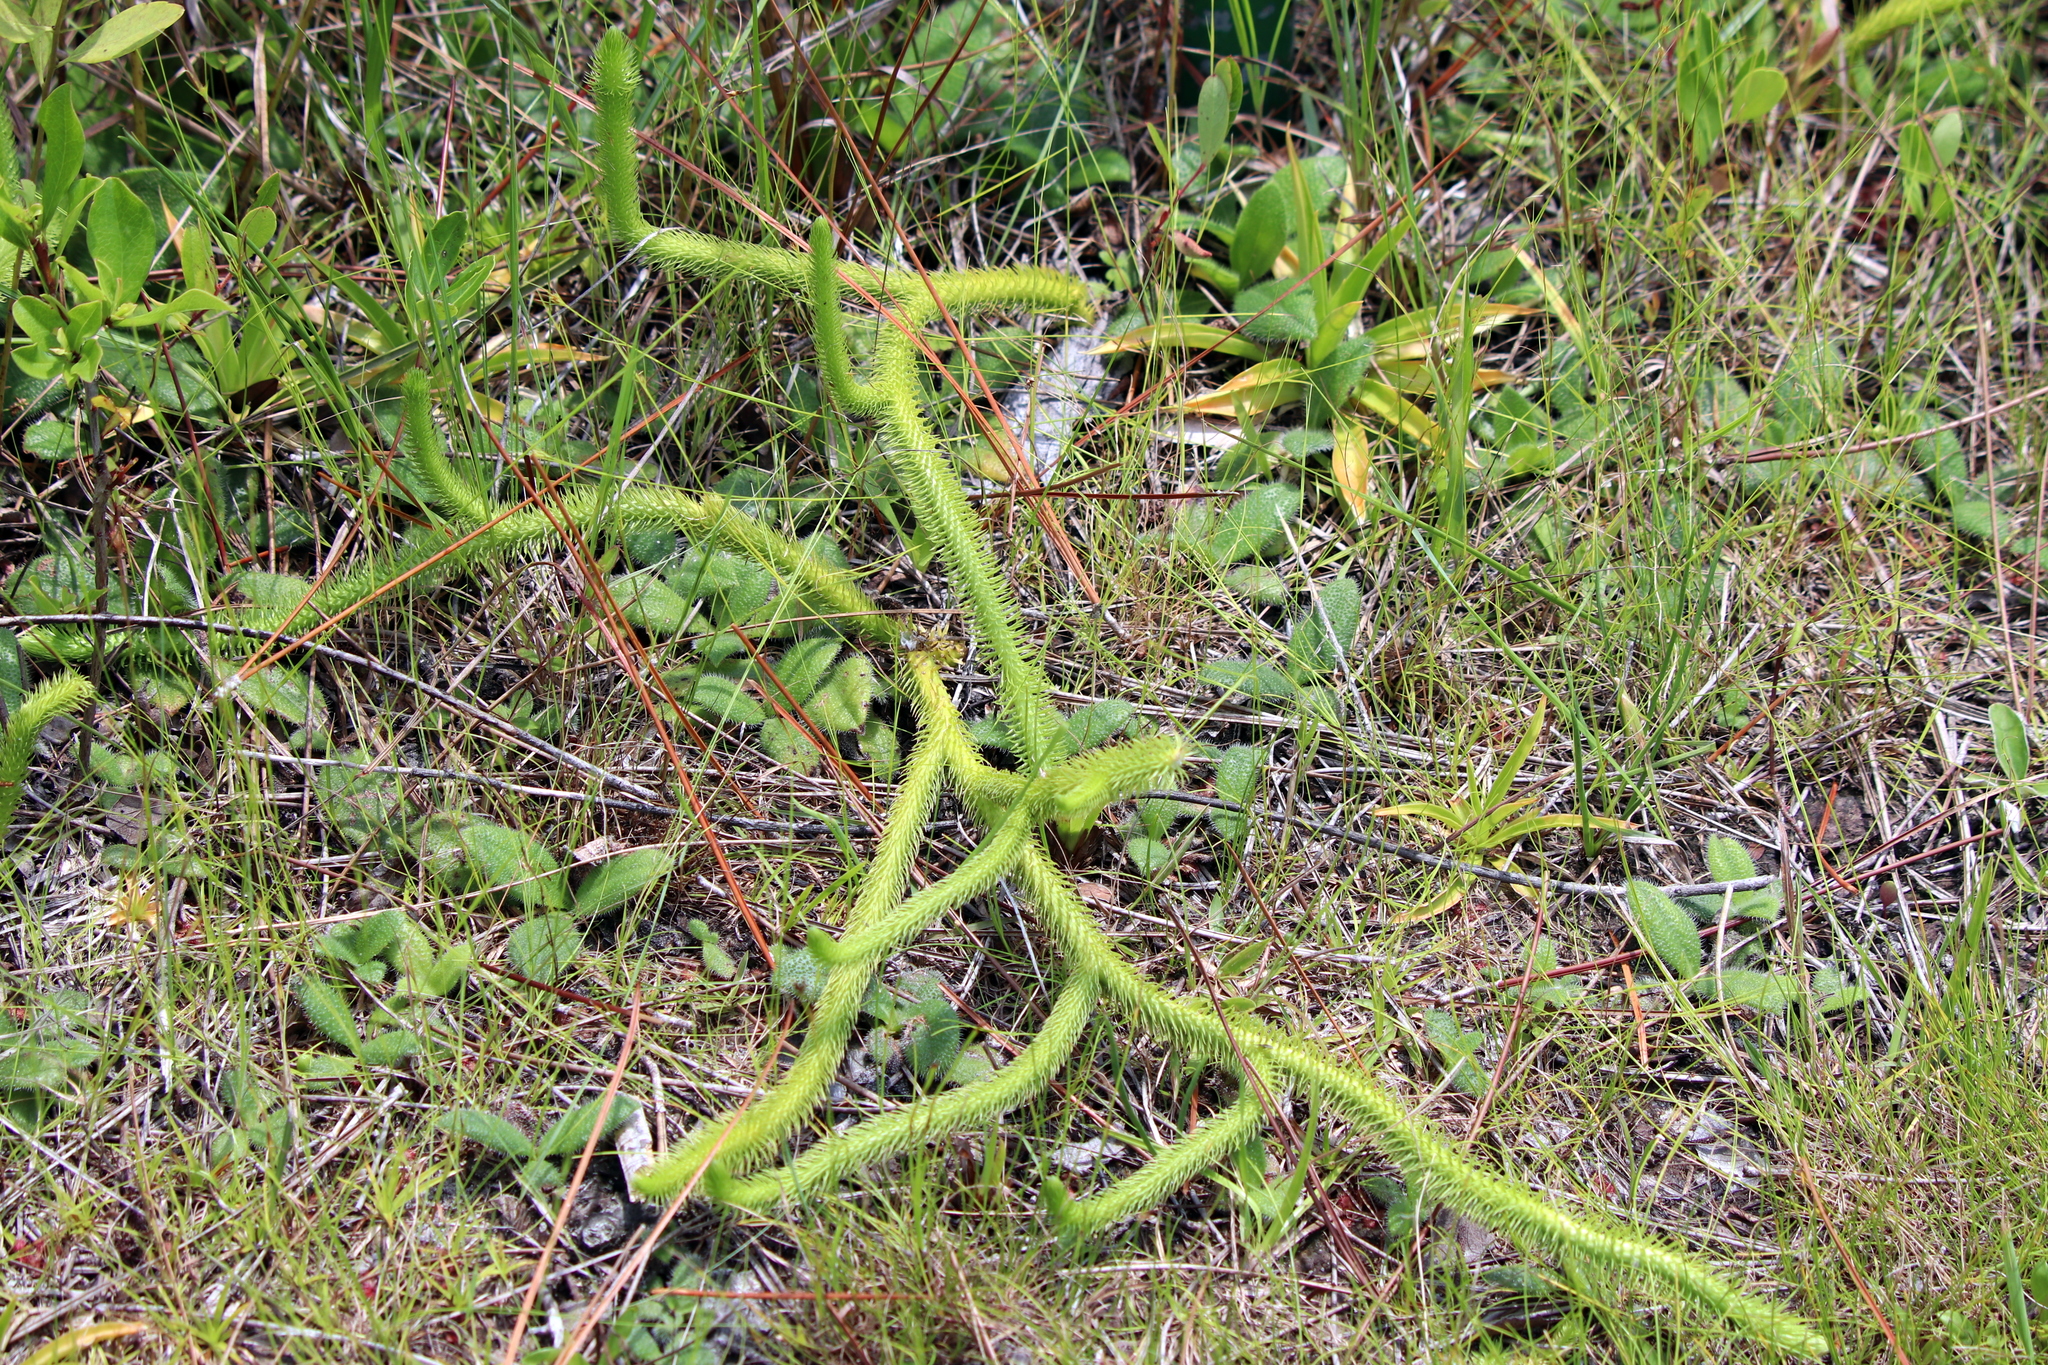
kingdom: Plantae
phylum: Tracheophyta
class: Lycopodiopsida
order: Lycopodiales
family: Lycopodiaceae
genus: Lycopodiella
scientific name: Lycopodiella alopecuroides
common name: Foxtail clubmoss
